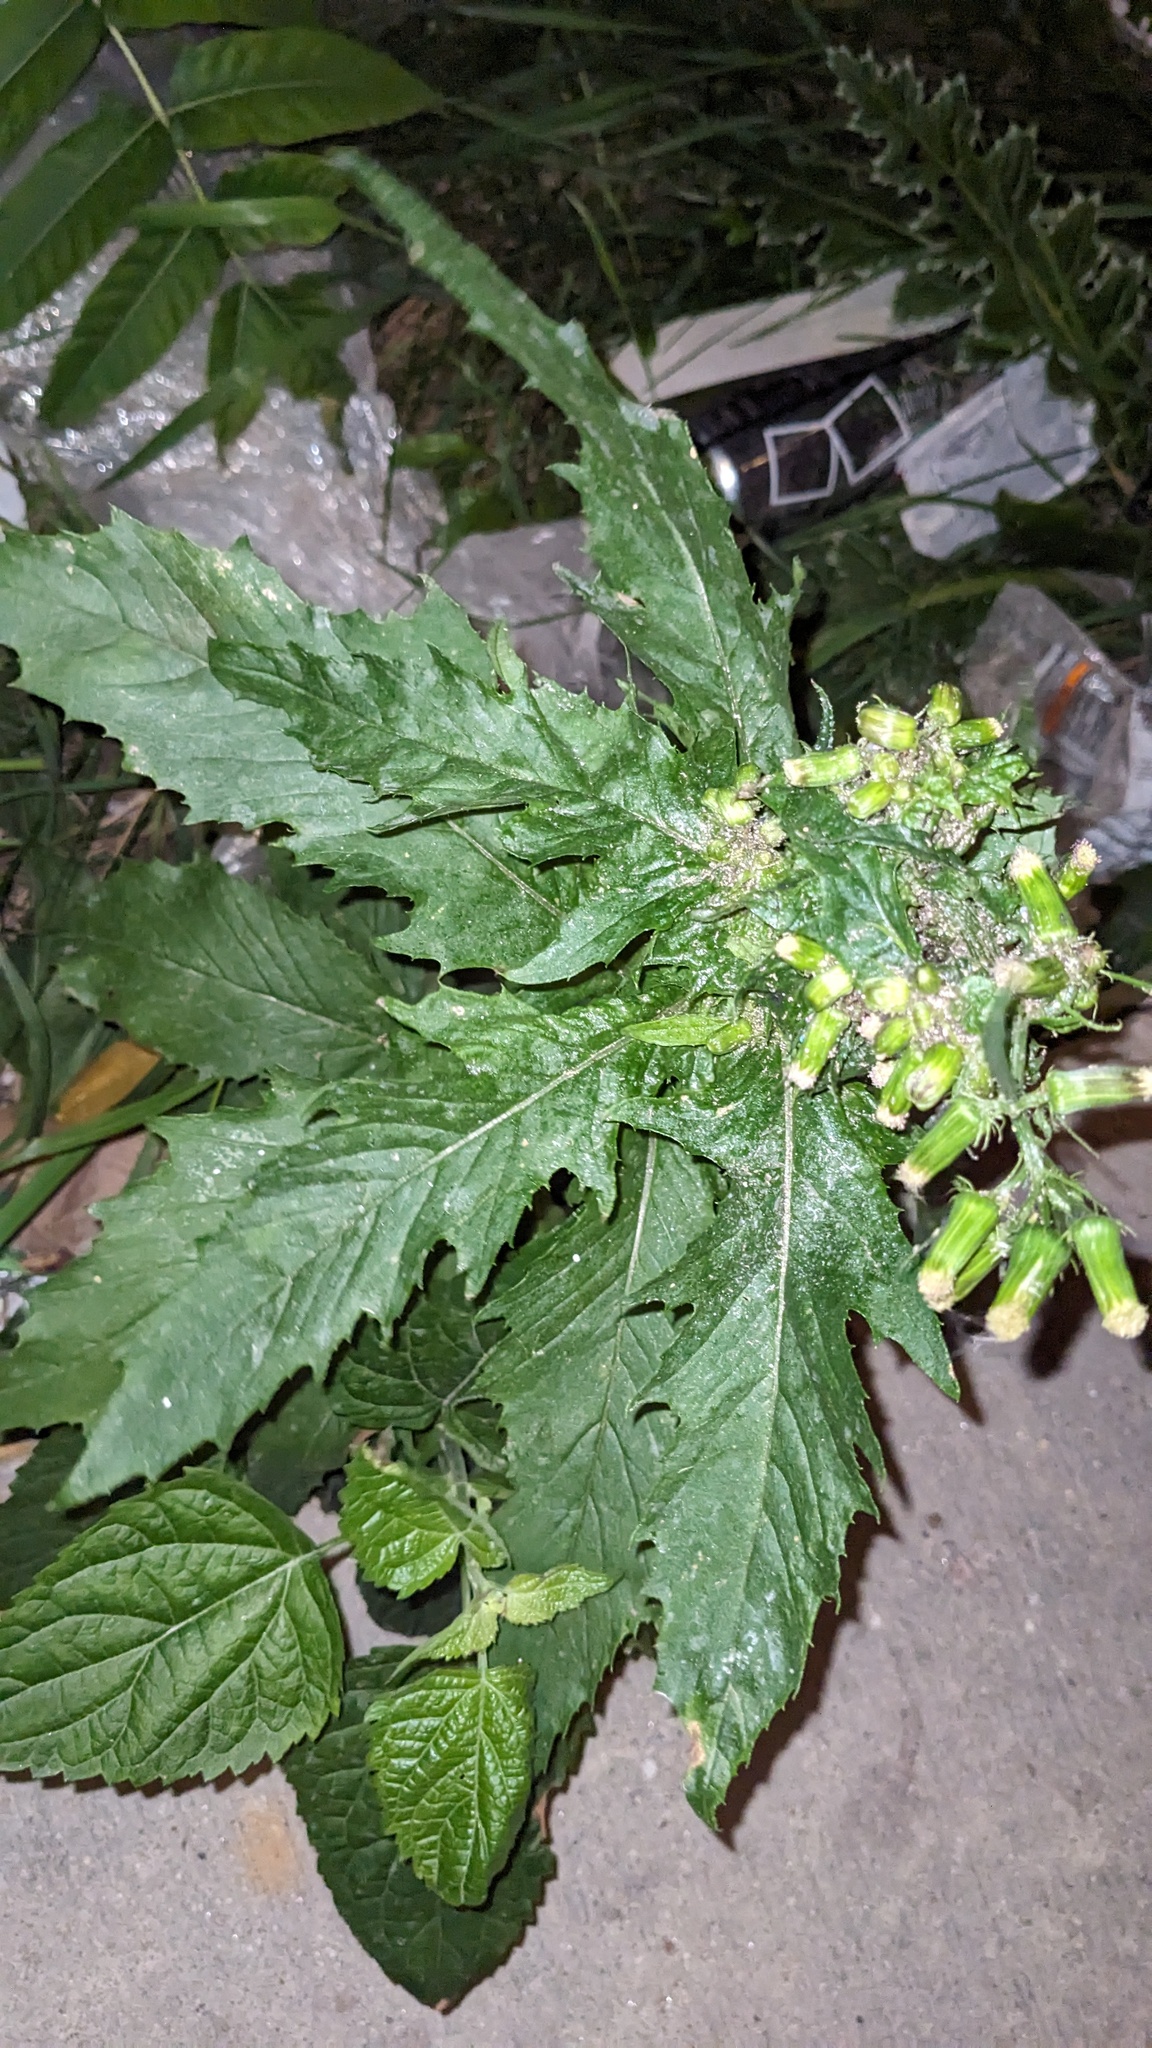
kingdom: Plantae
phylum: Tracheophyta
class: Magnoliopsida
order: Asterales
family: Asteraceae
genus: Erechtites
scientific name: Erechtites hieraciifolius
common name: American burnweed
